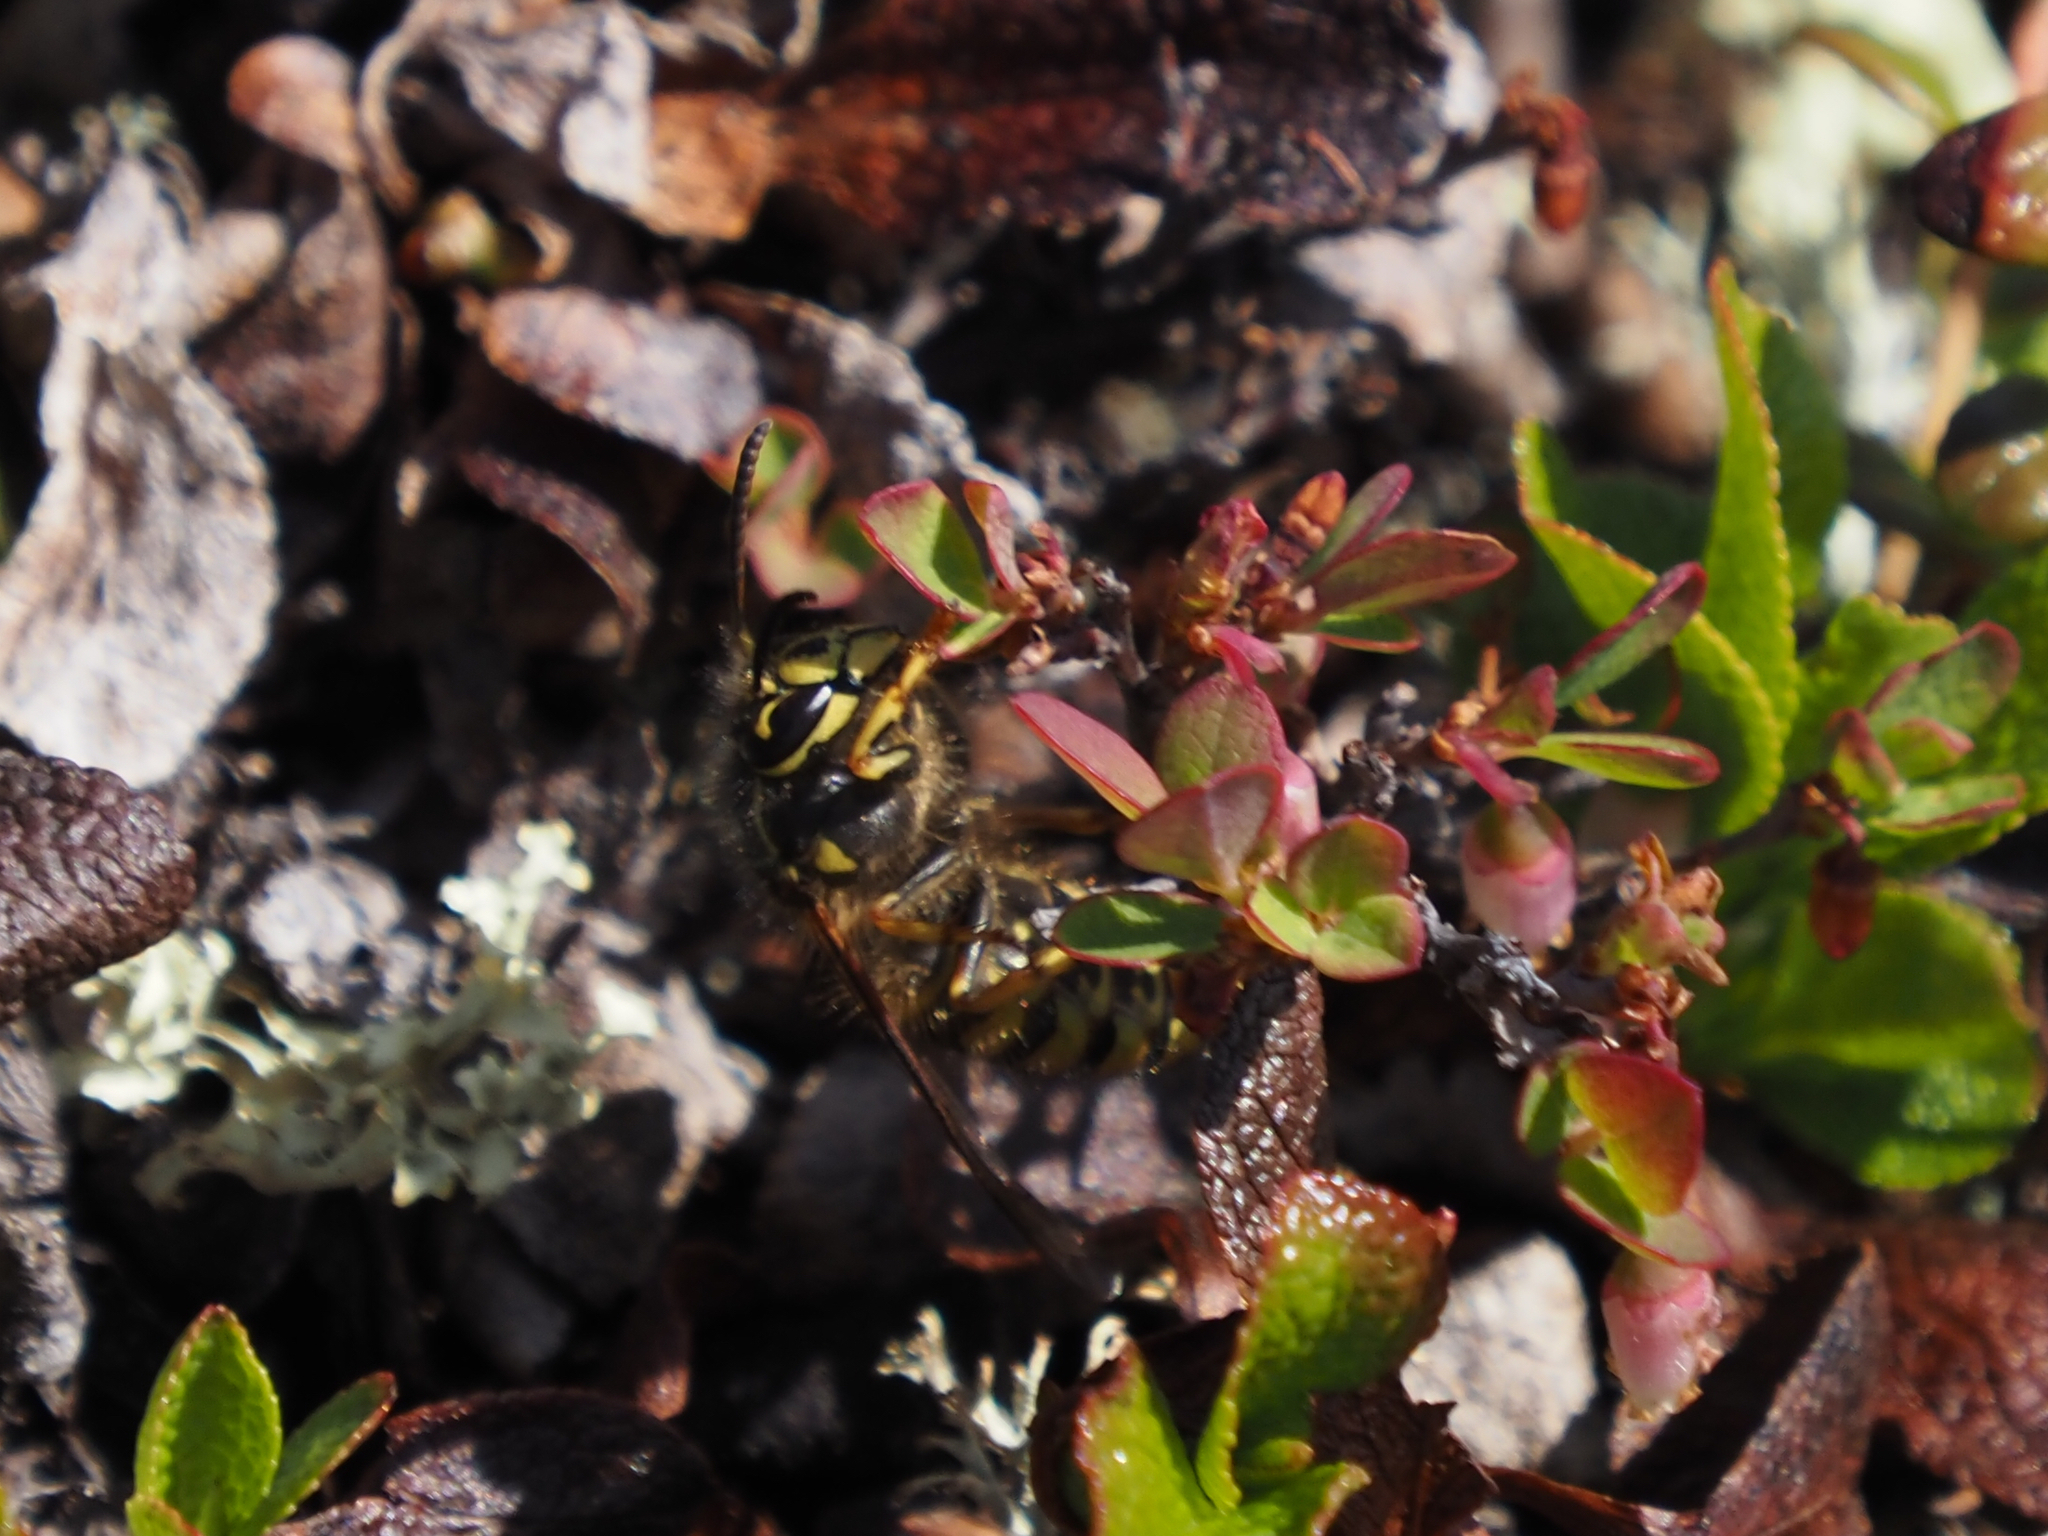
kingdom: Animalia
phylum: Arthropoda
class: Insecta
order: Hymenoptera
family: Vespidae
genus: Dolichovespula
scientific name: Dolichovespula arenaria
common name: Aerial yellowjacket
